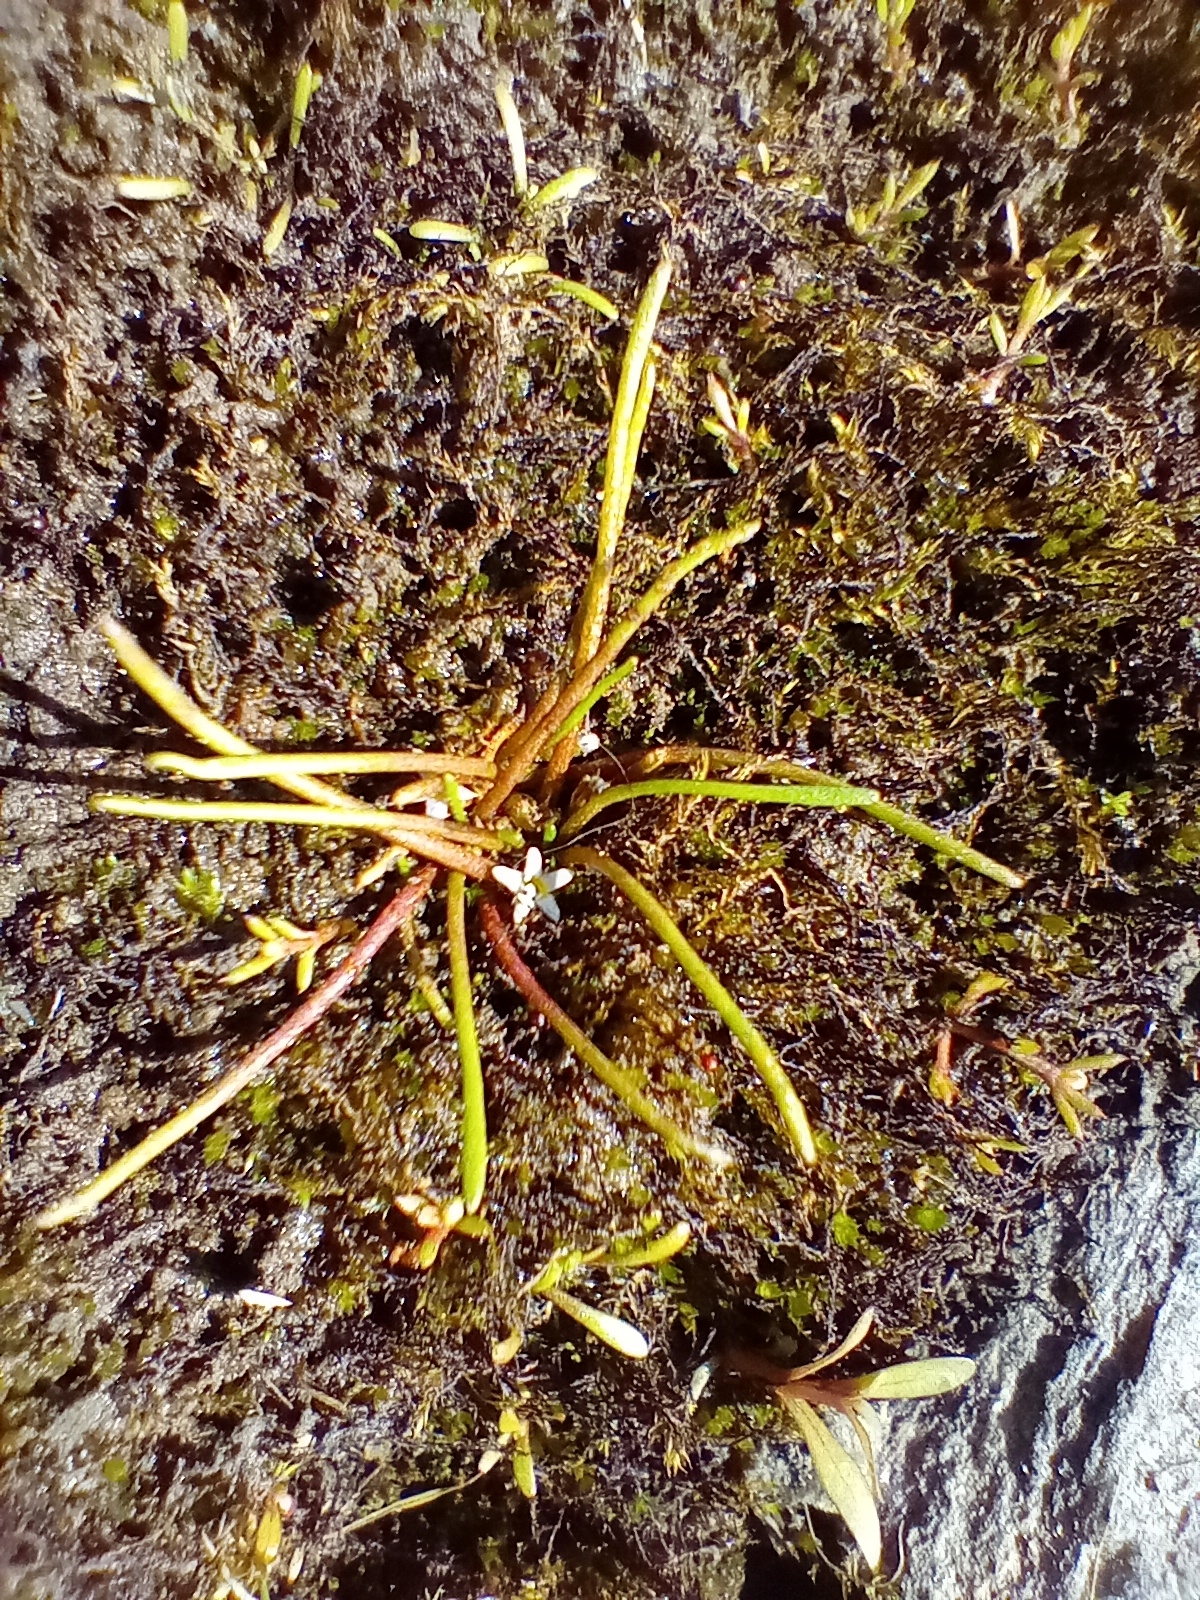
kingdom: Plantae
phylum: Tracheophyta
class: Magnoliopsida
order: Lamiales
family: Scrophulariaceae
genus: Limosella
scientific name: Limosella australis
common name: Welsh mudwort
